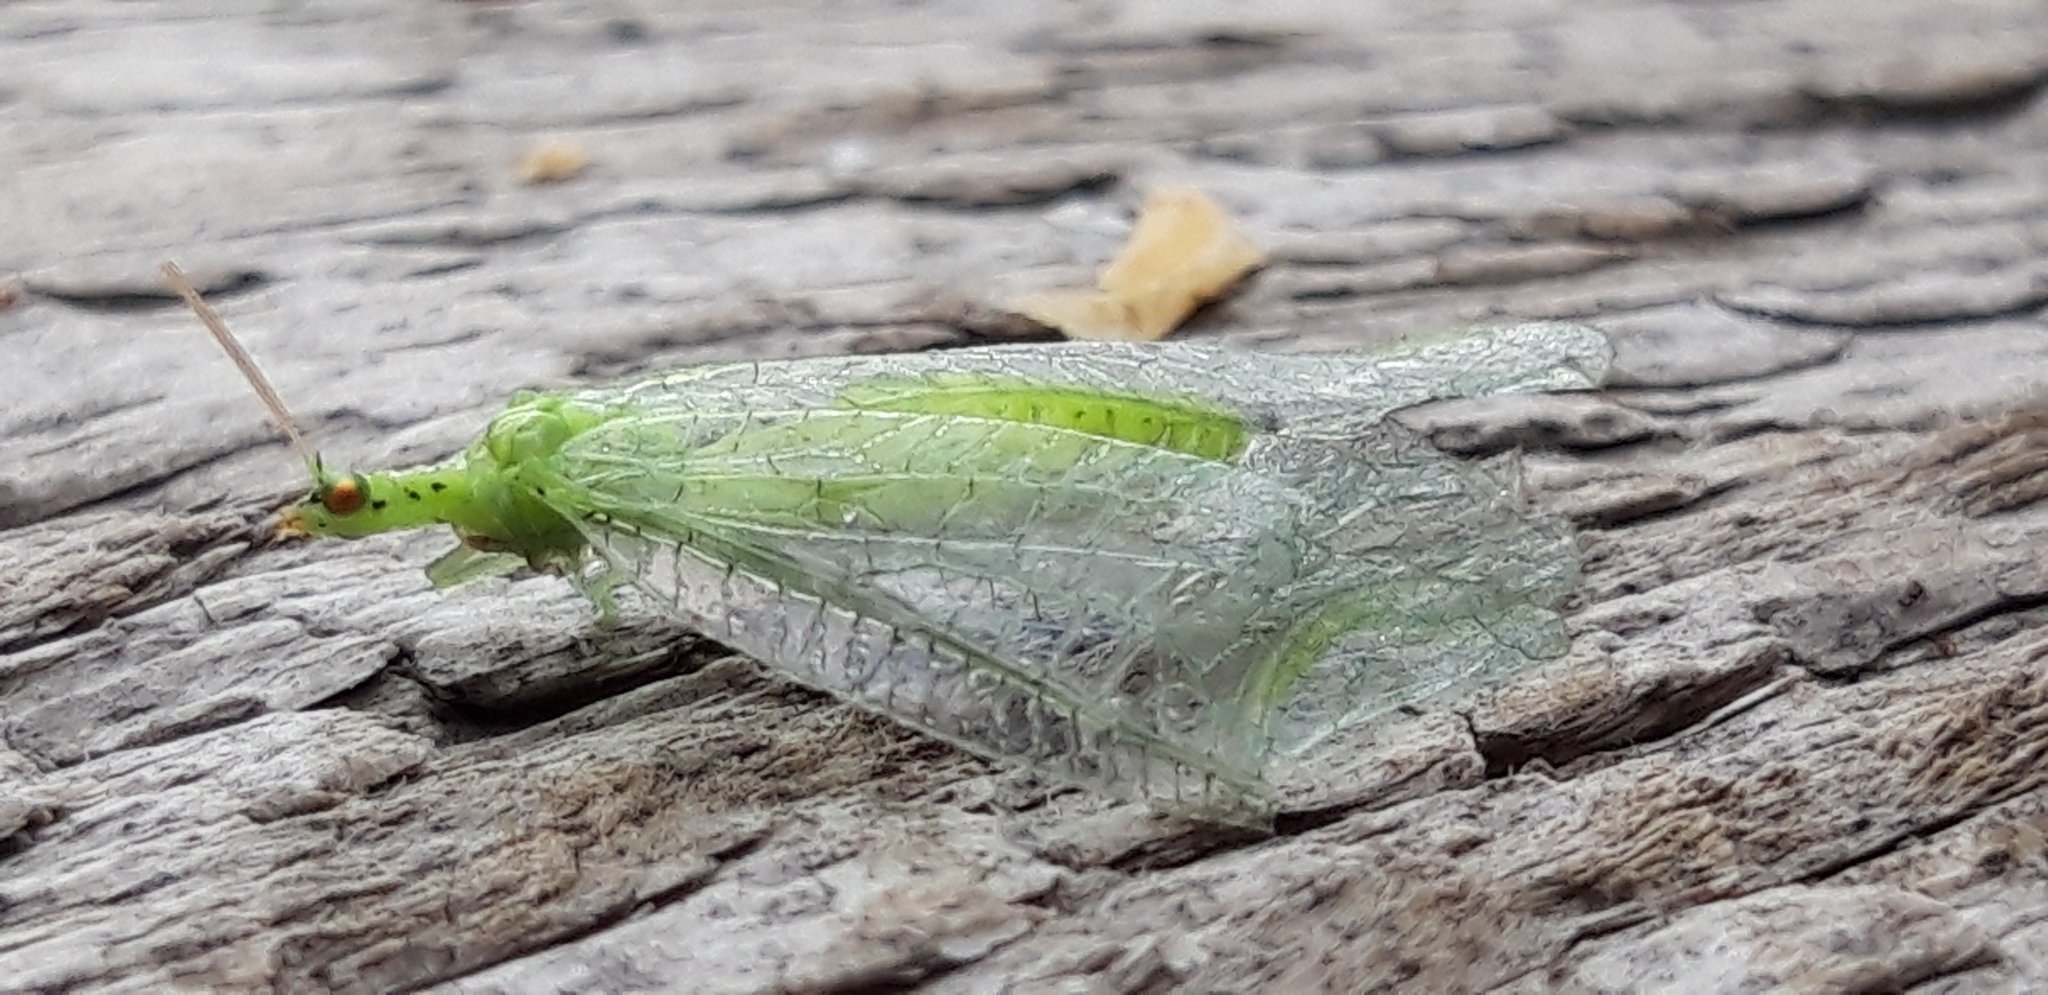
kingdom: Animalia
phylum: Arthropoda
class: Insecta
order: Neuroptera
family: Chrysopidae
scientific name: Chrysopidae
